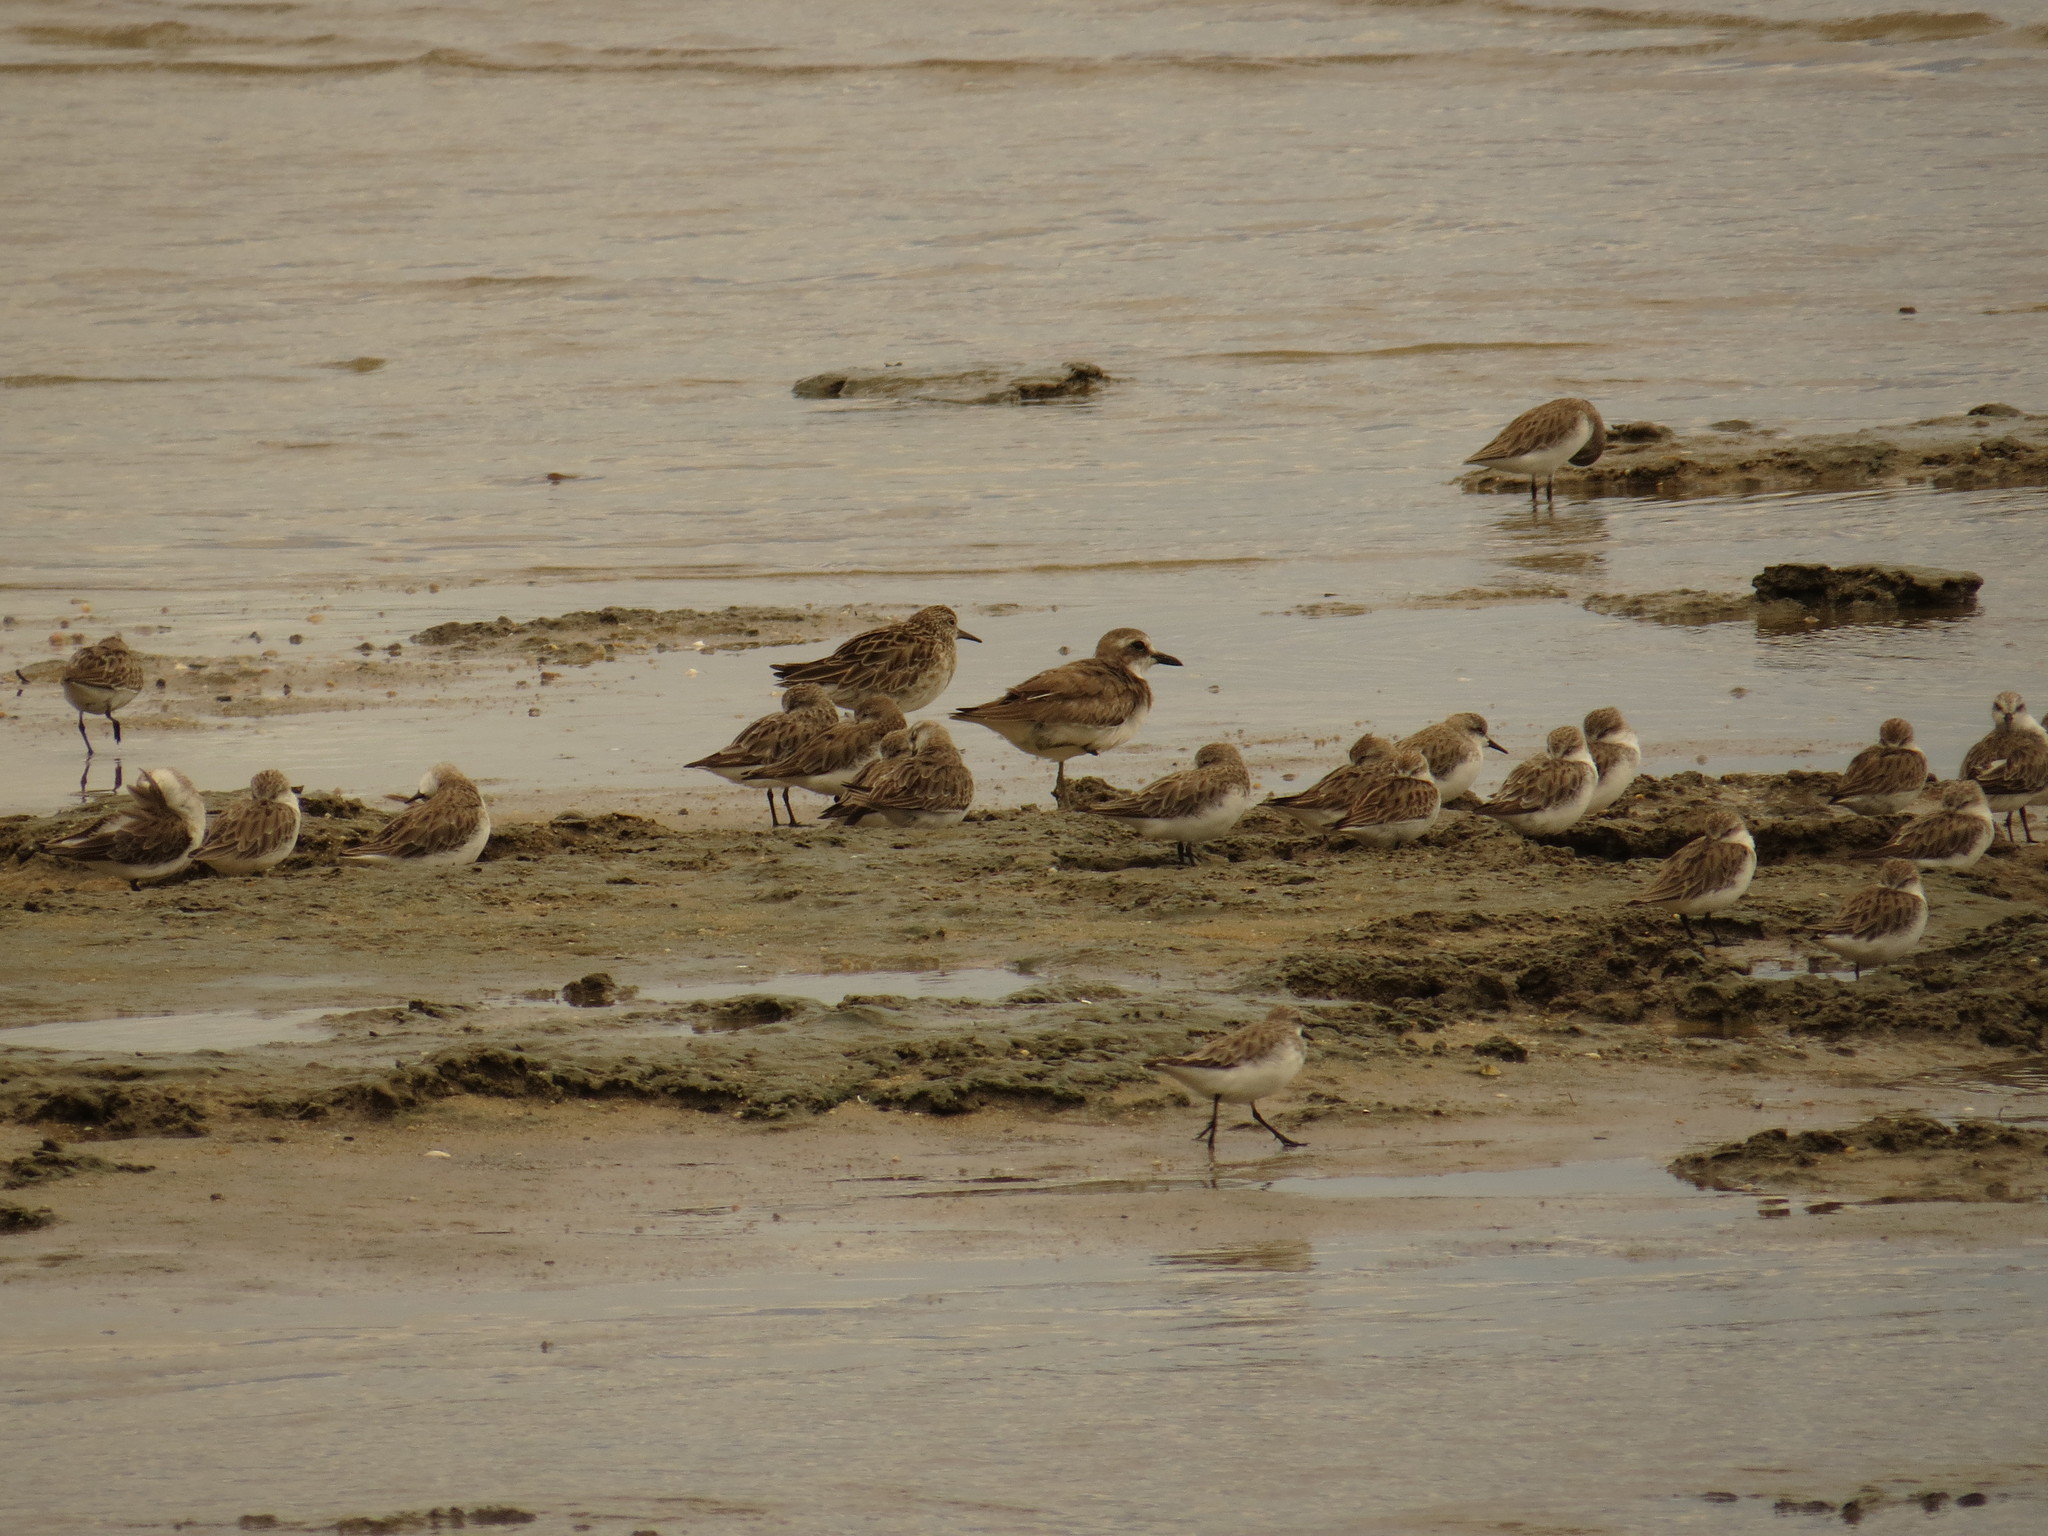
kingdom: Animalia
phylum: Chordata
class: Aves
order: Charadriiformes
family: Scolopacidae
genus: Calidris
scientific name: Calidris acuminata
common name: Sharp-tailed sandpiper
